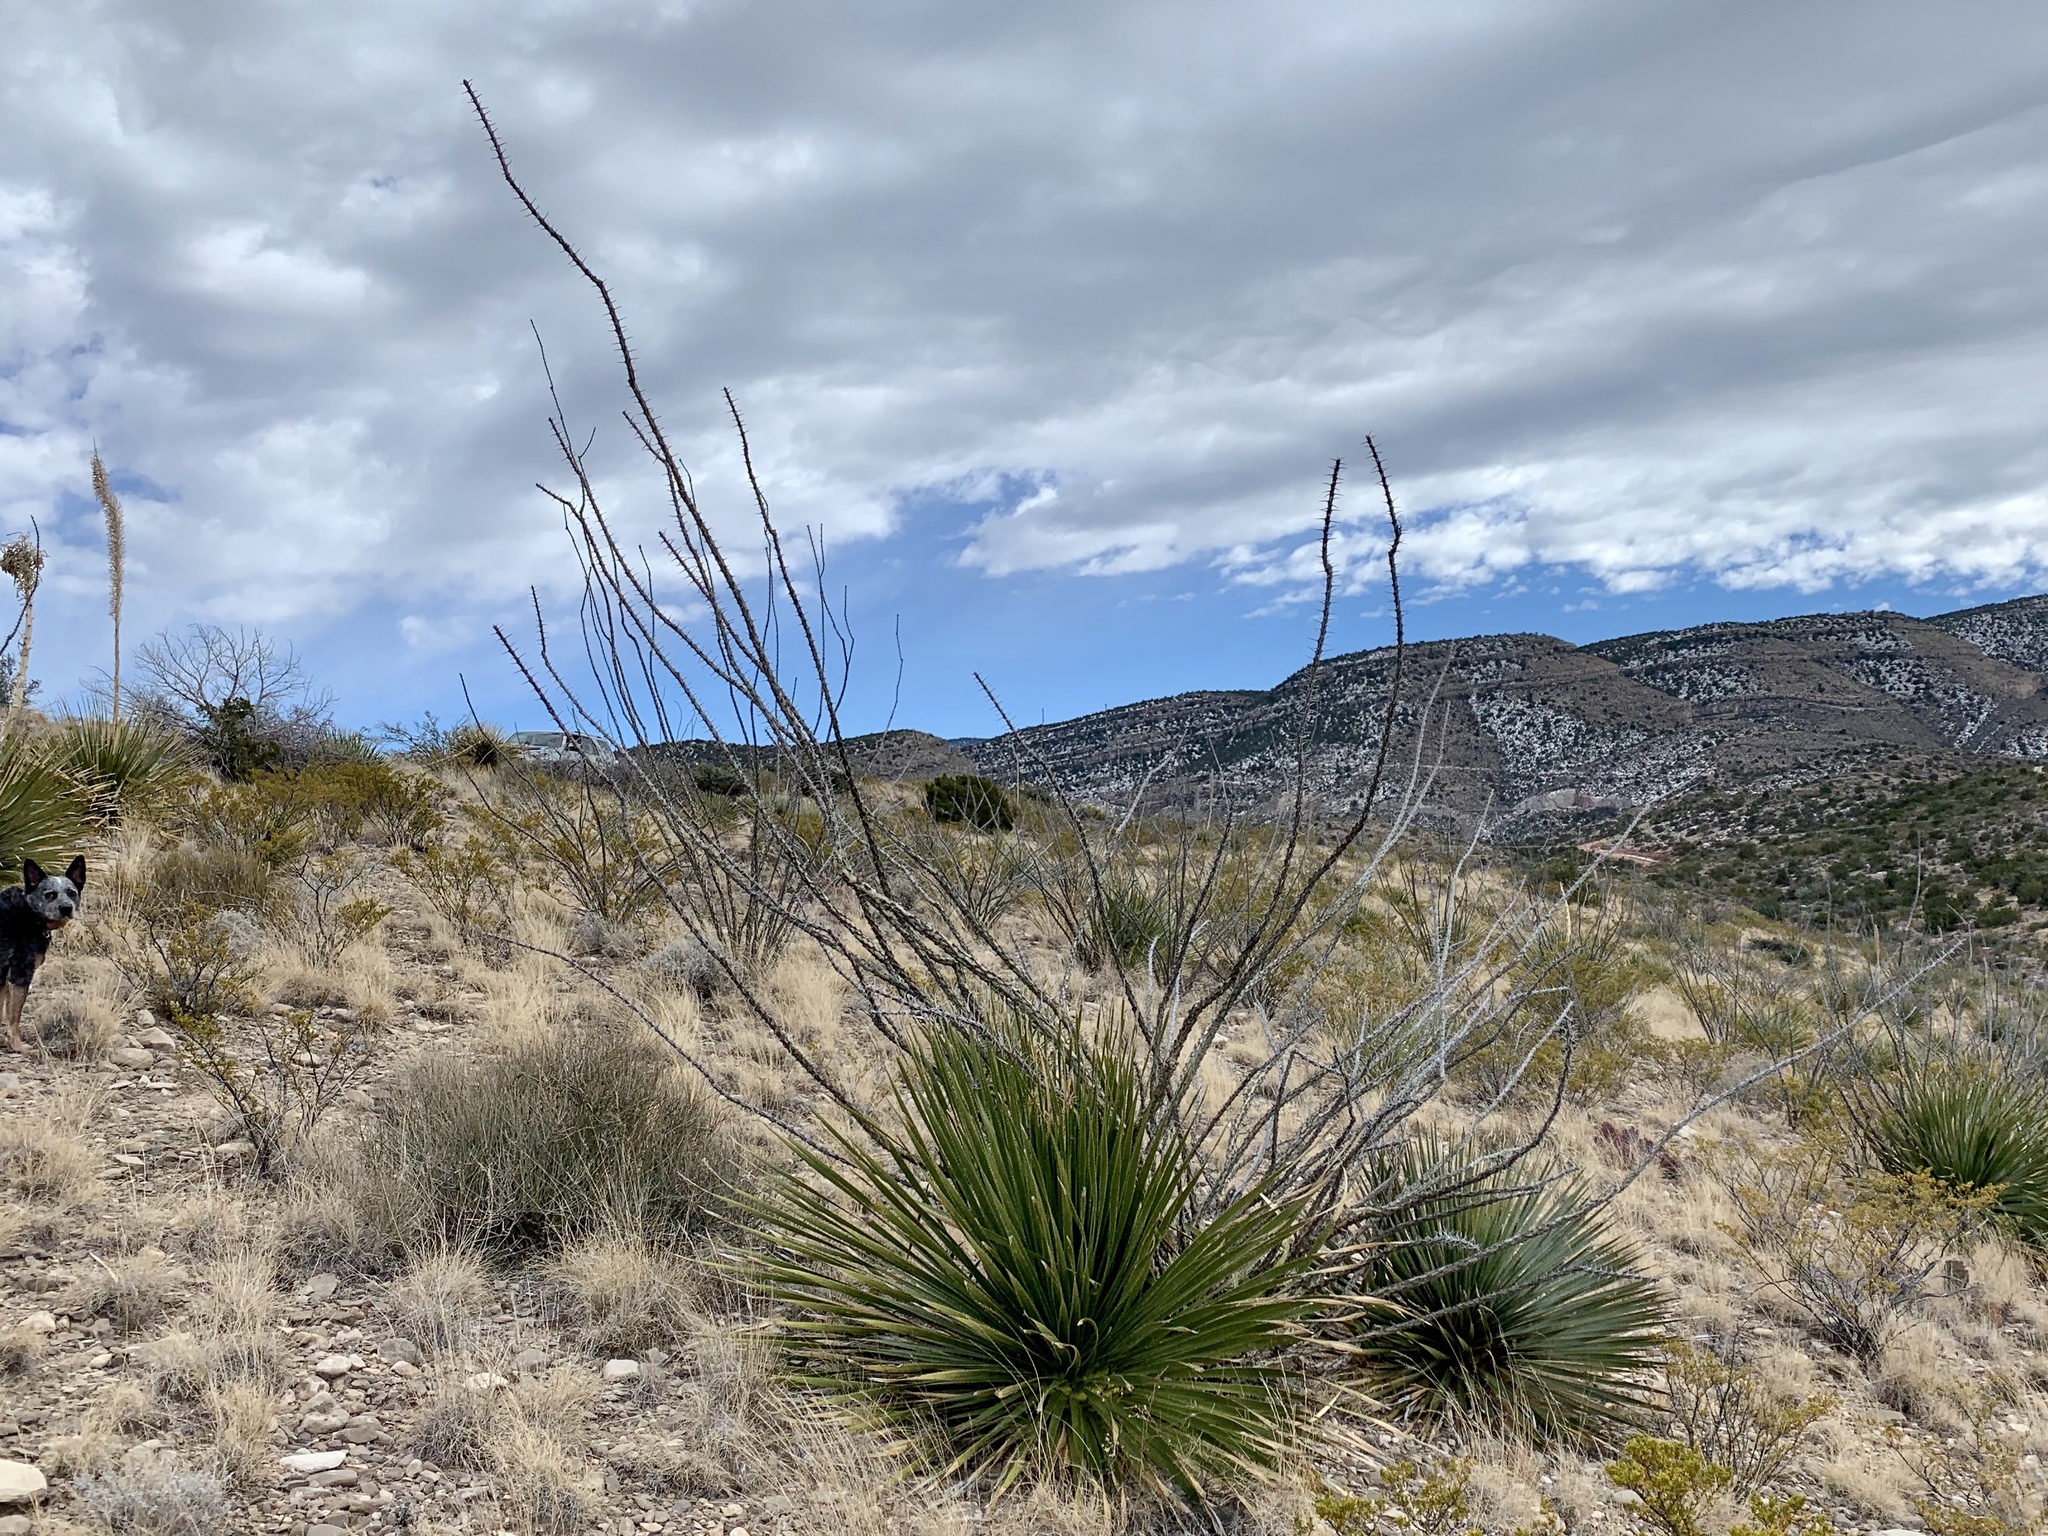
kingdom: Plantae
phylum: Tracheophyta
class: Liliopsida
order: Asparagales
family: Asparagaceae
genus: Dasylirion
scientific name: Dasylirion wheeleri
